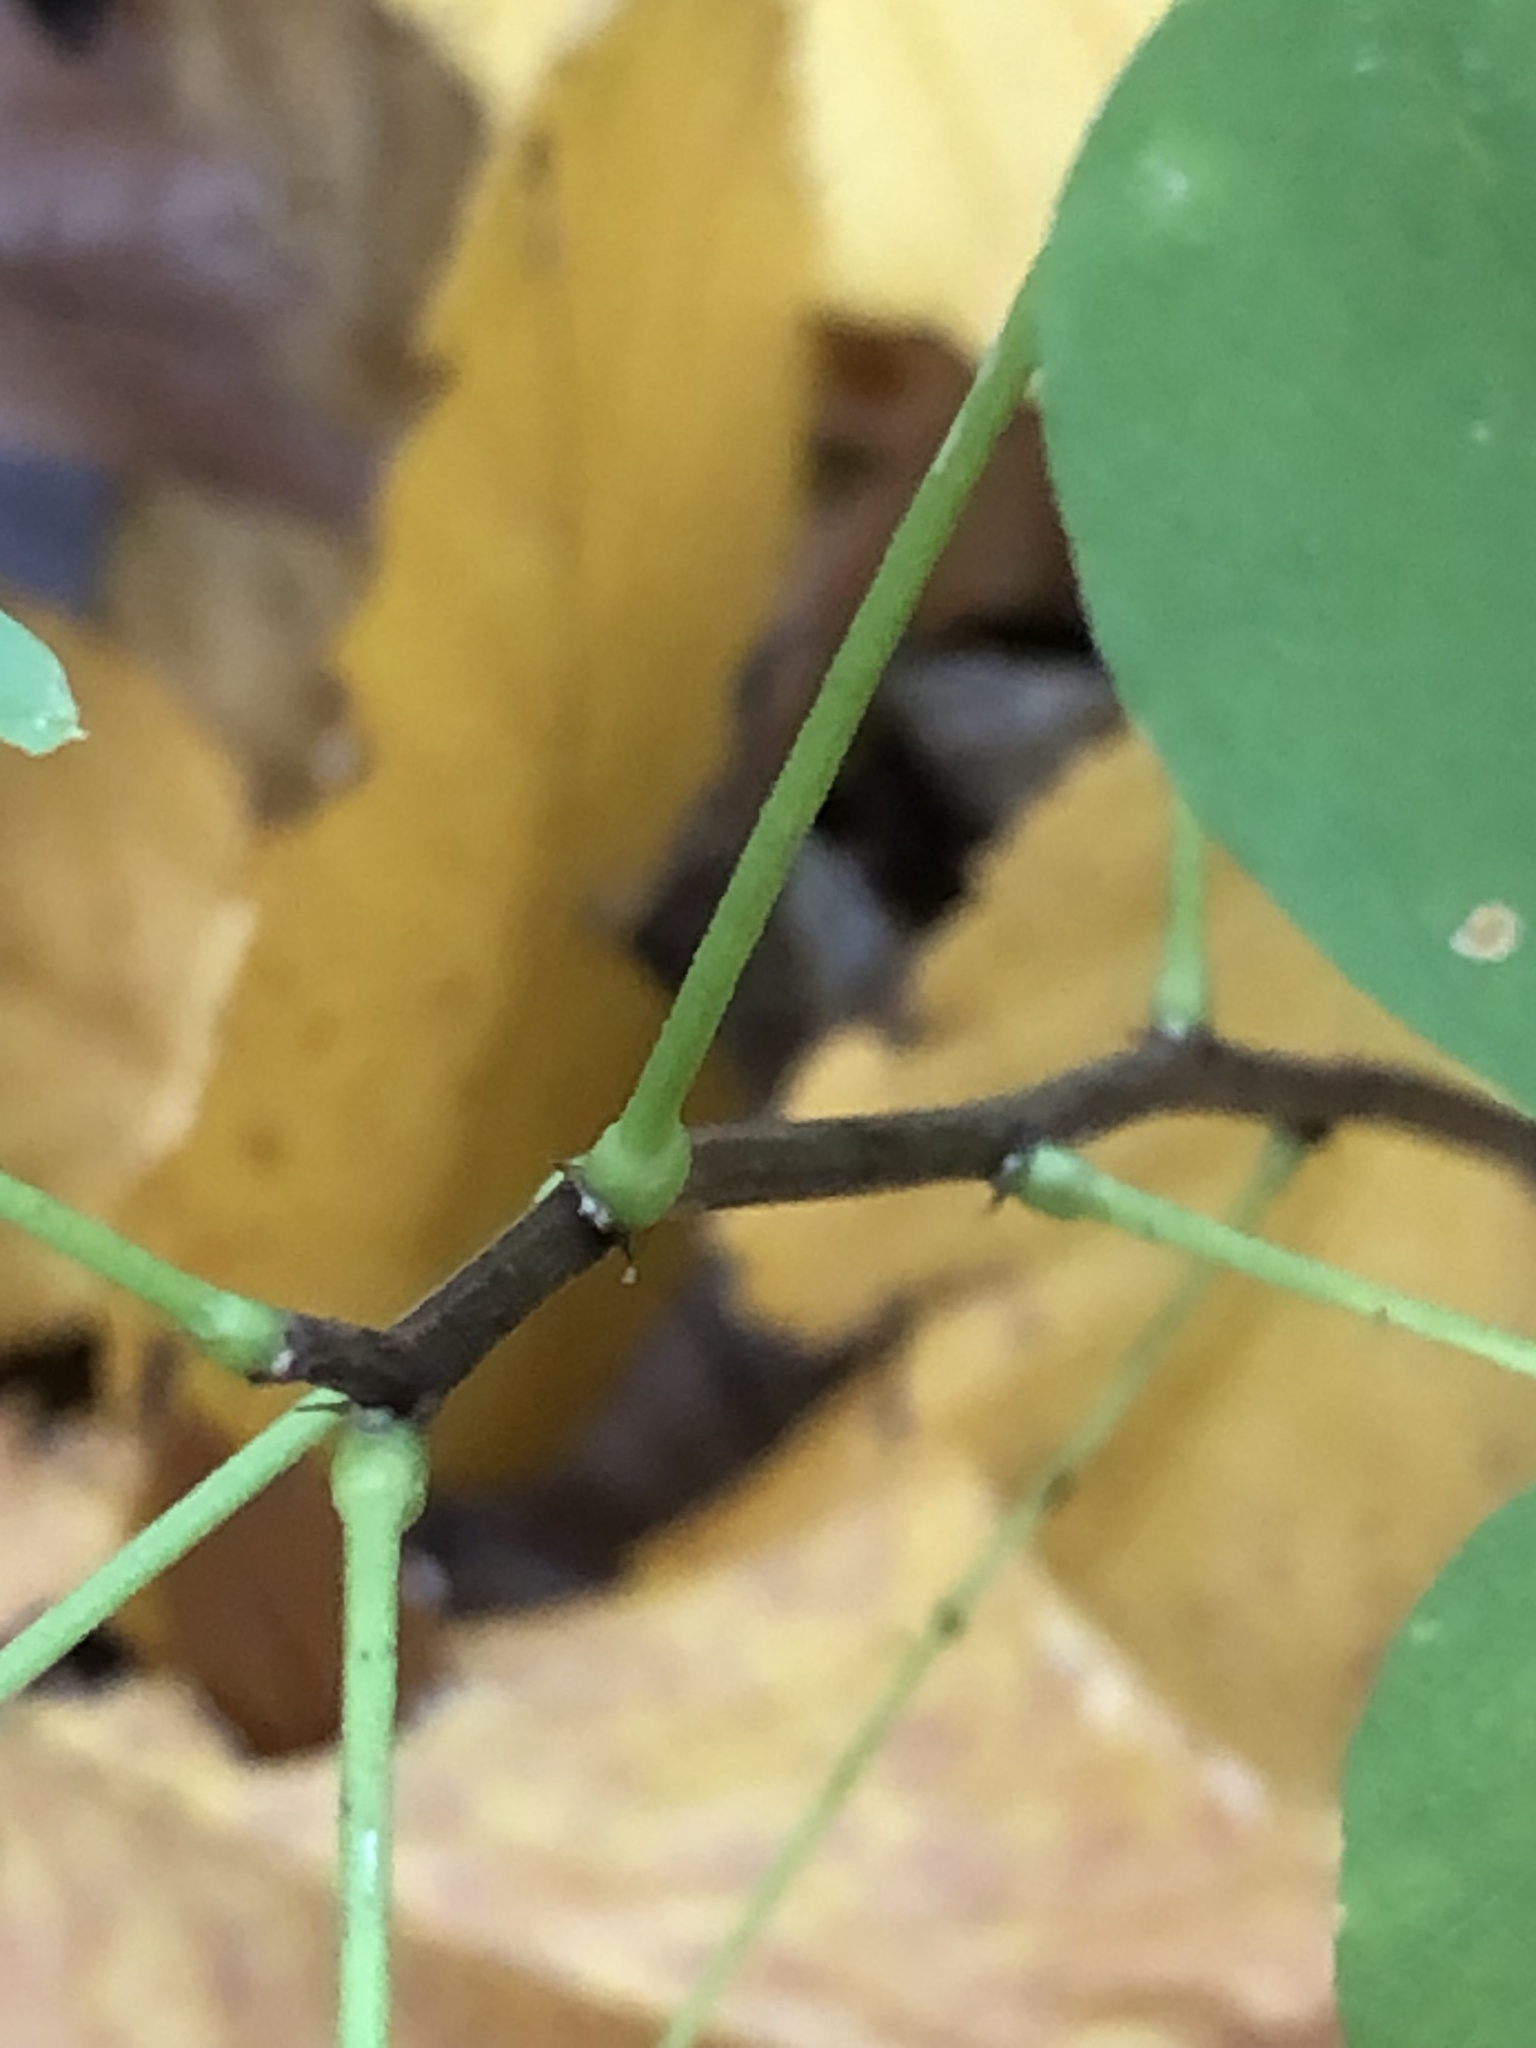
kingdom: Plantae
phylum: Tracheophyta
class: Magnoliopsida
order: Fabales
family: Fabaceae
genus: Robinia
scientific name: Robinia pseudoacacia
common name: Black locust
